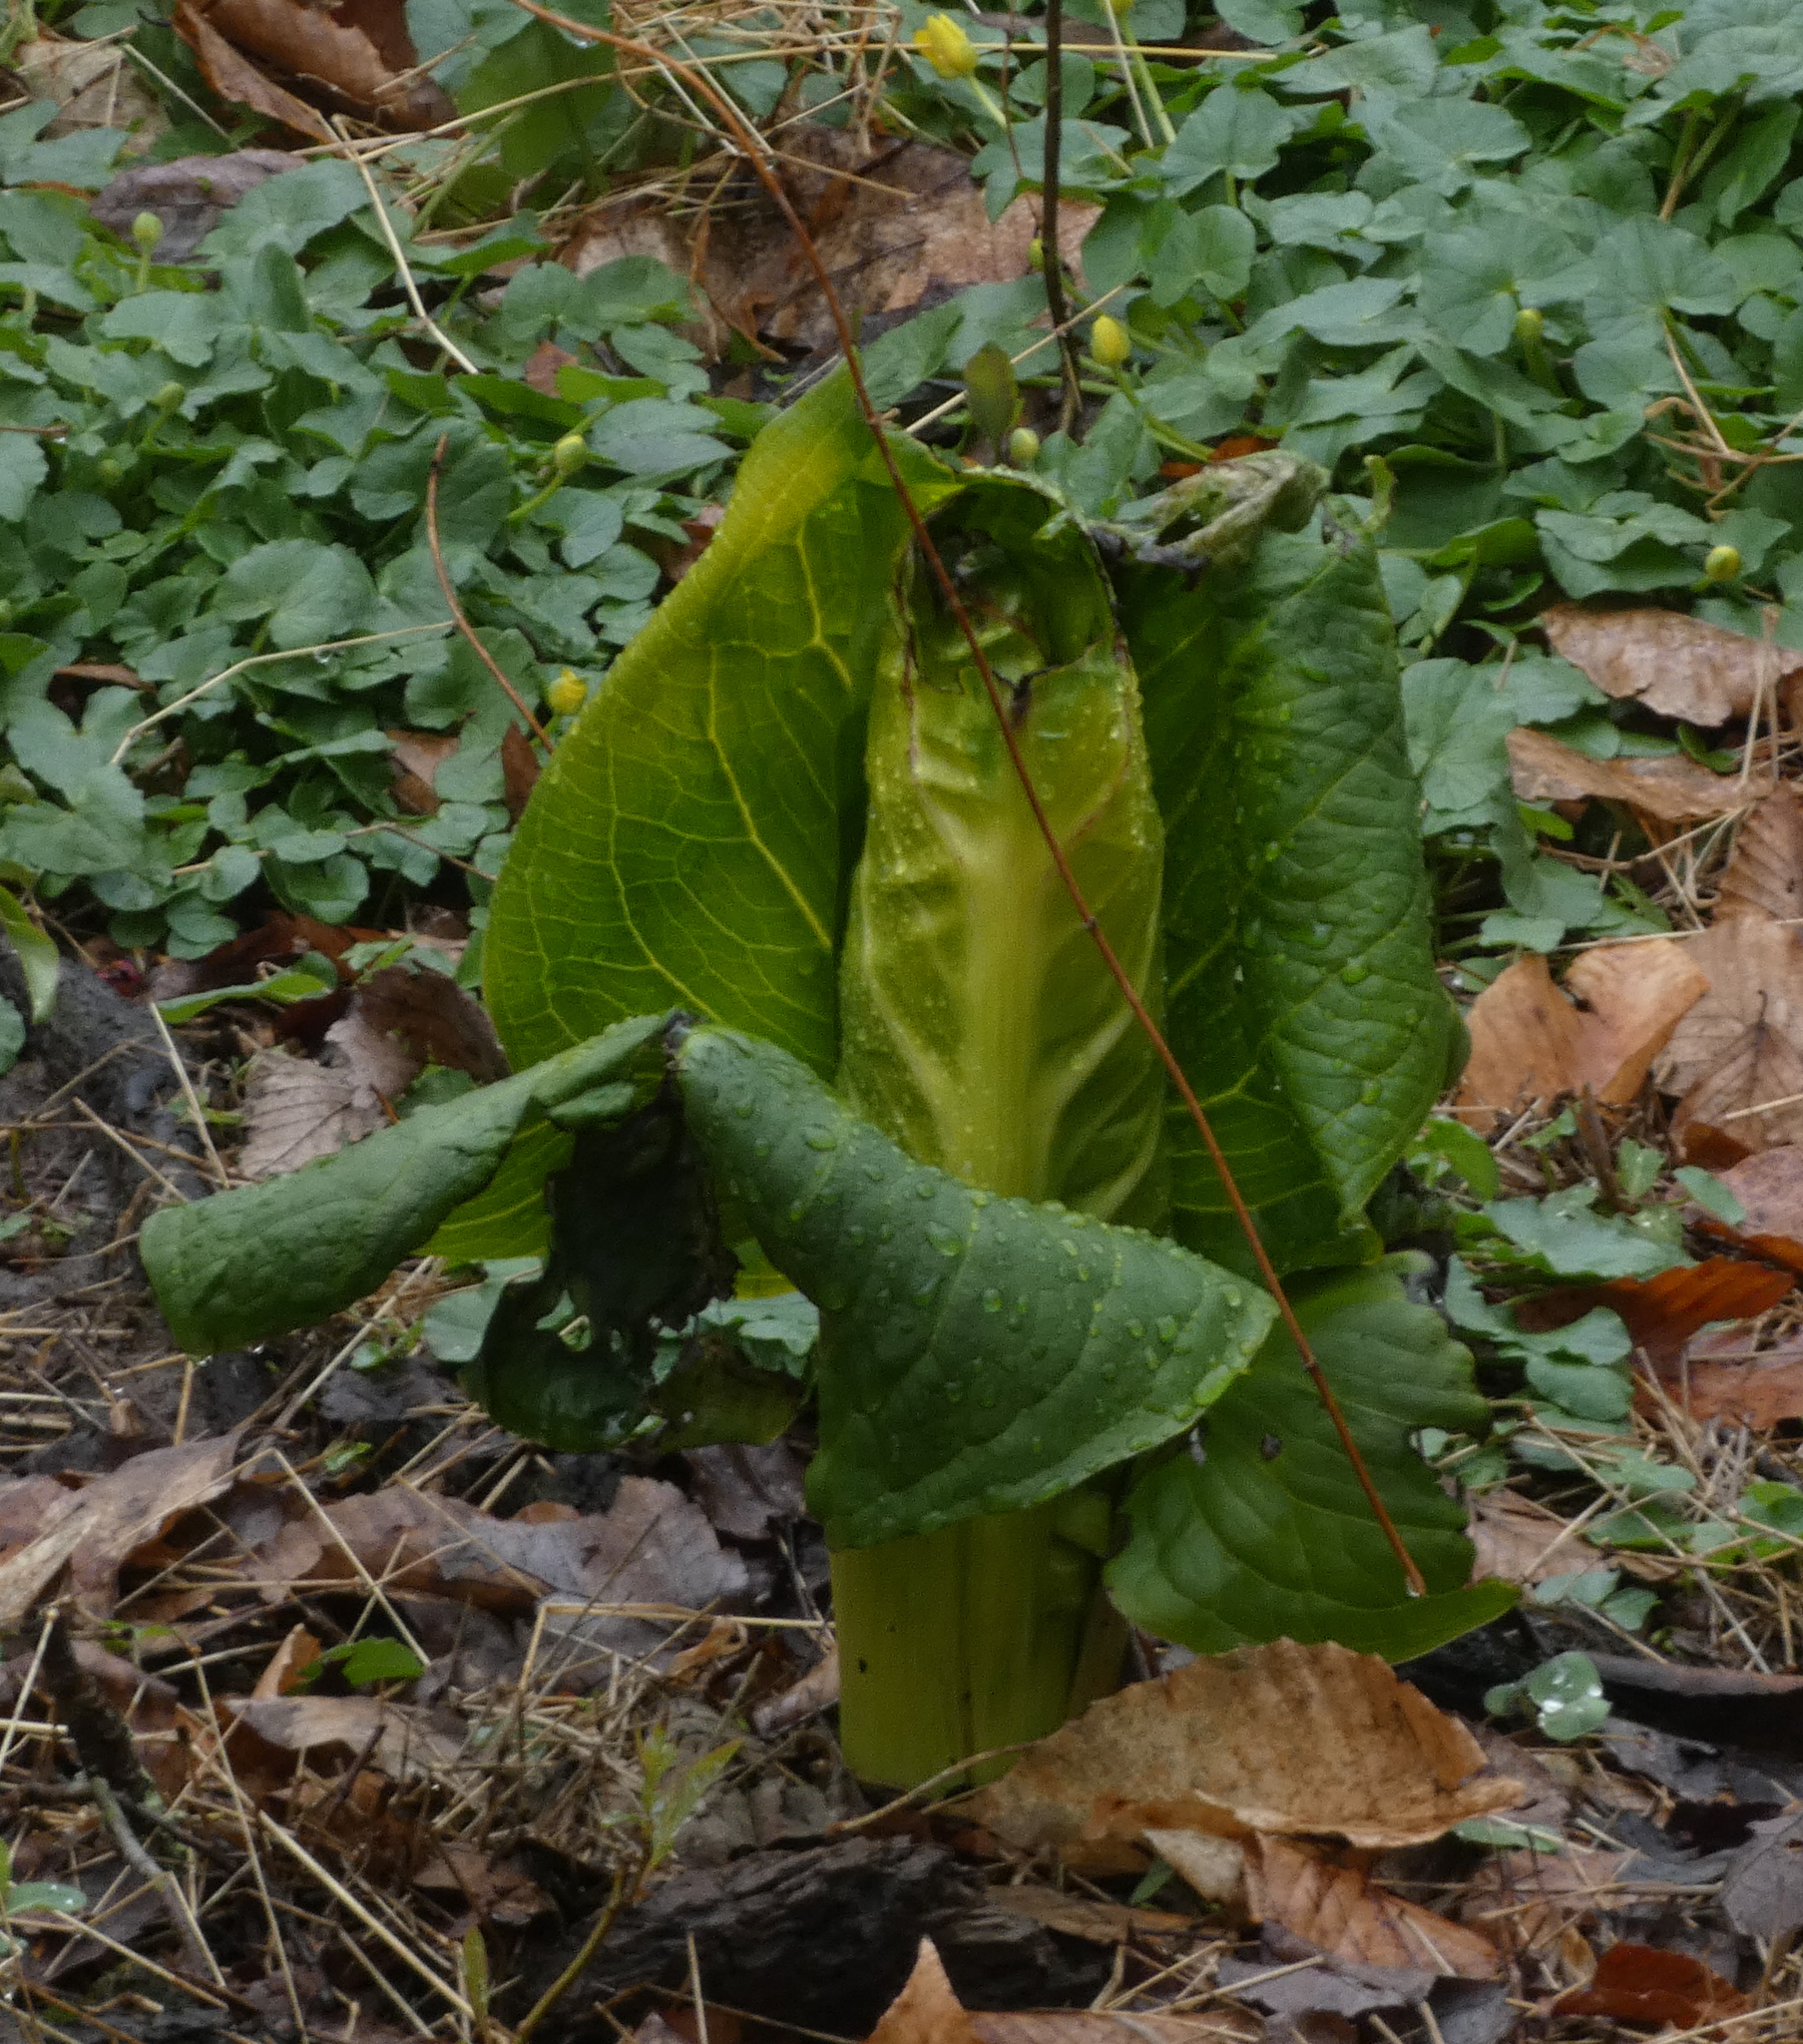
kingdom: Plantae
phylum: Tracheophyta
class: Liliopsida
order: Alismatales
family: Araceae
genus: Symplocarpus
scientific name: Symplocarpus foetidus
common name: Eastern skunk cabbage
